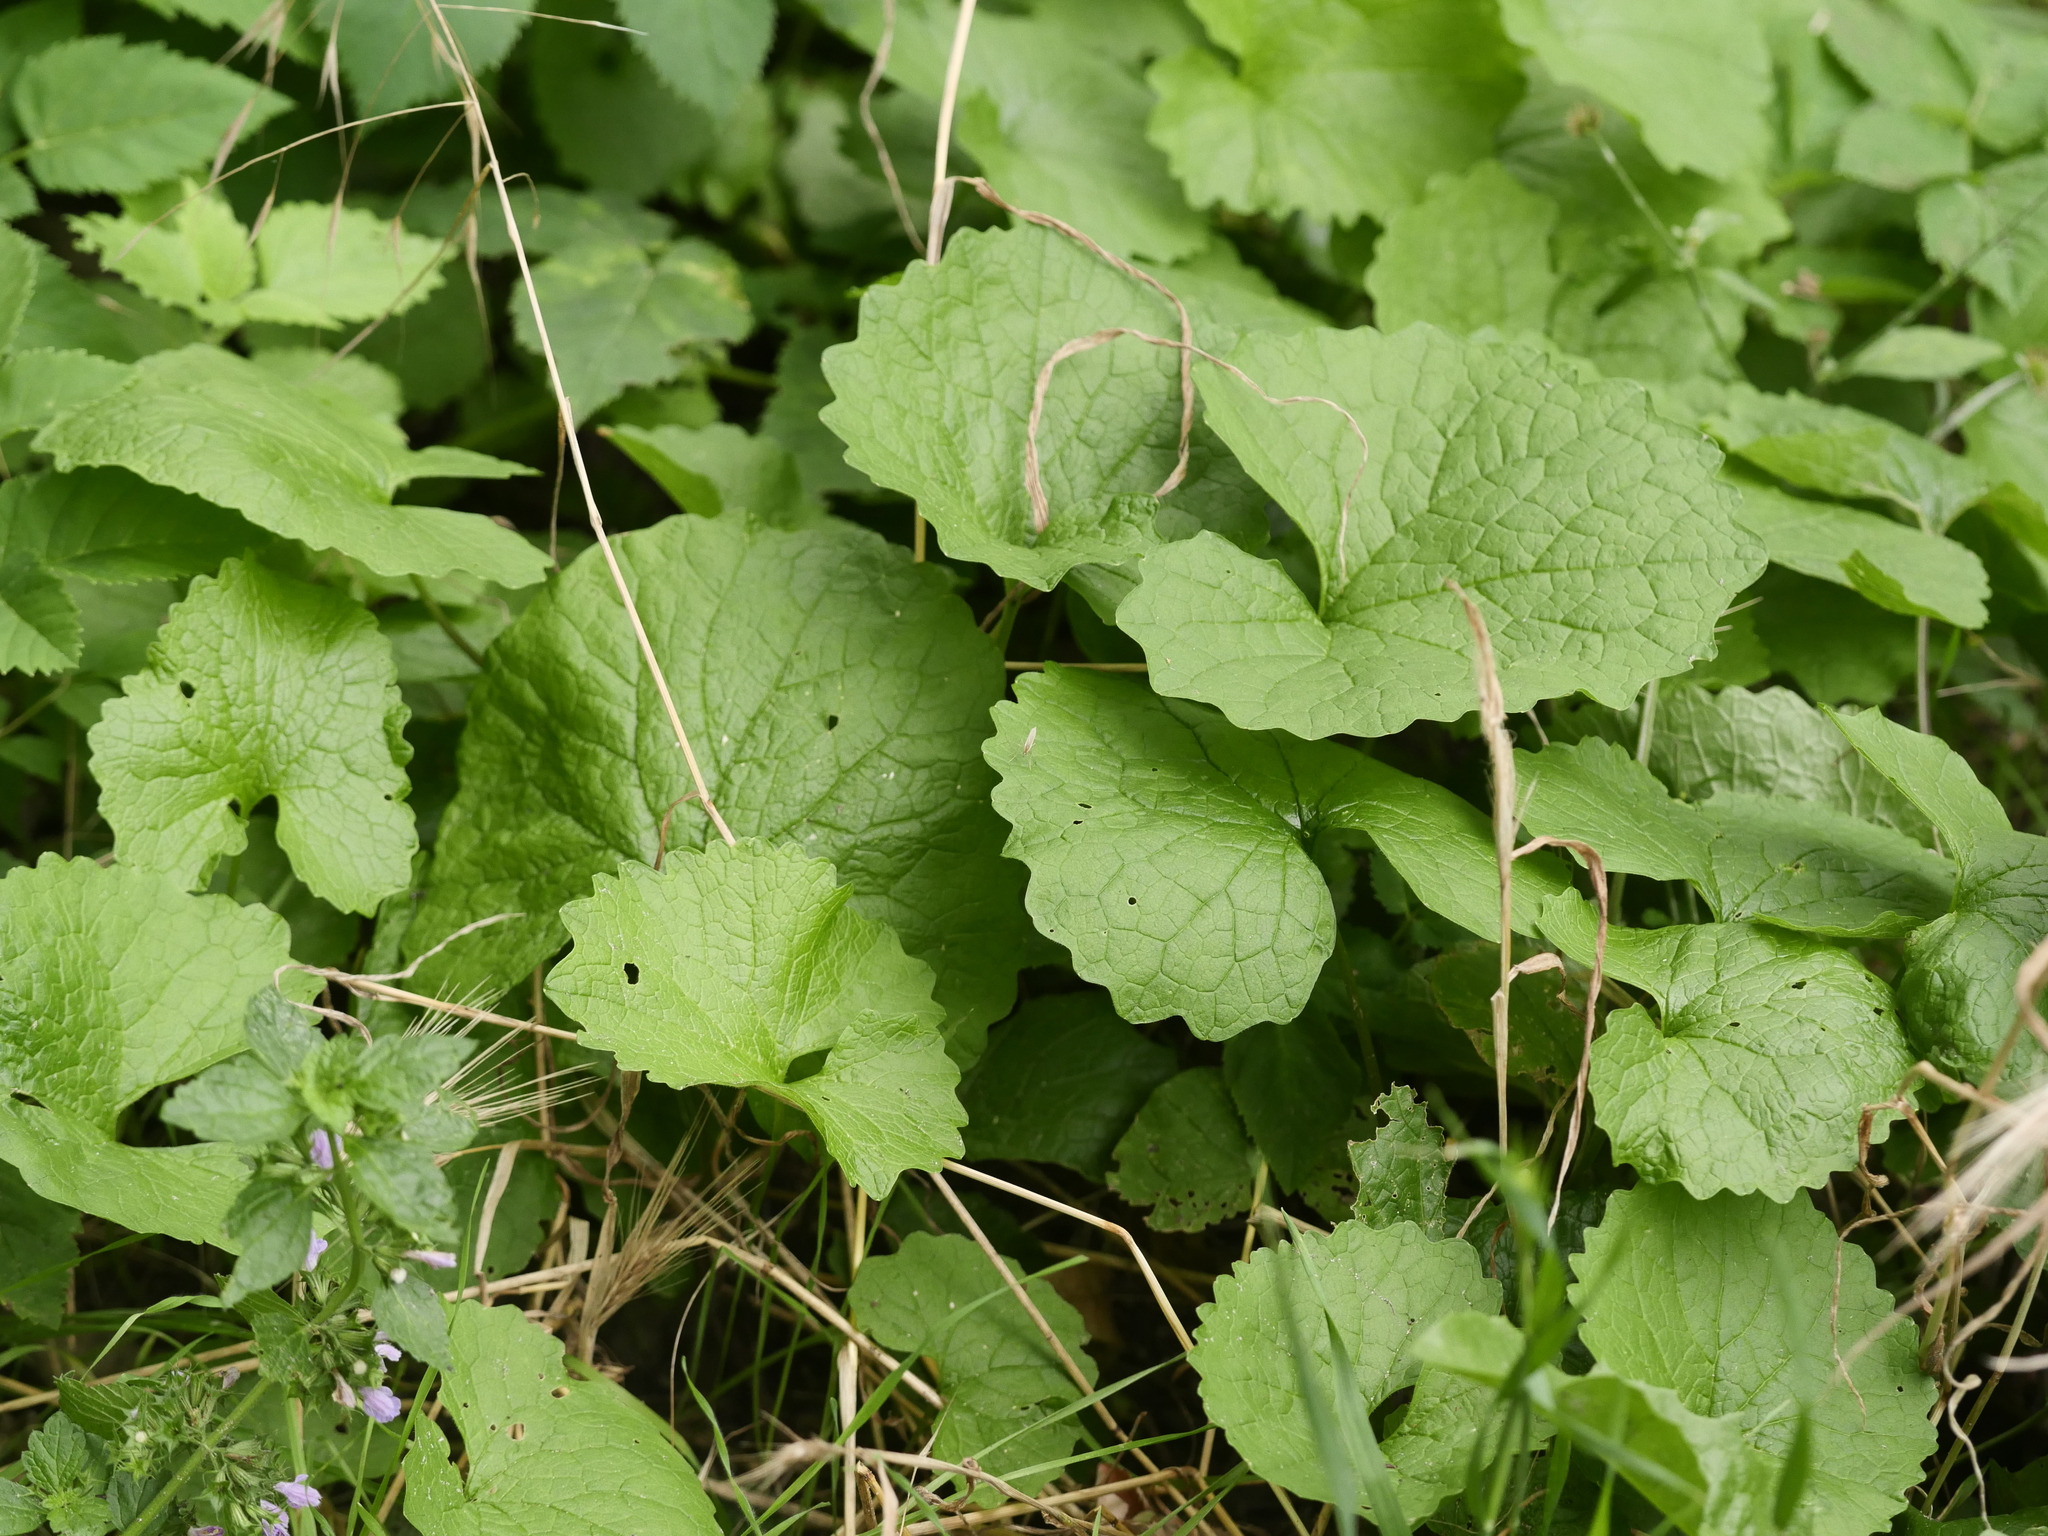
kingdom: Plantae
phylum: Tracheophyta
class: Magnoliopsida
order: Brassicales
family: Brassicaceae
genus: Alliaria
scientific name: Alliaria petiolata
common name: Garlic mustard
